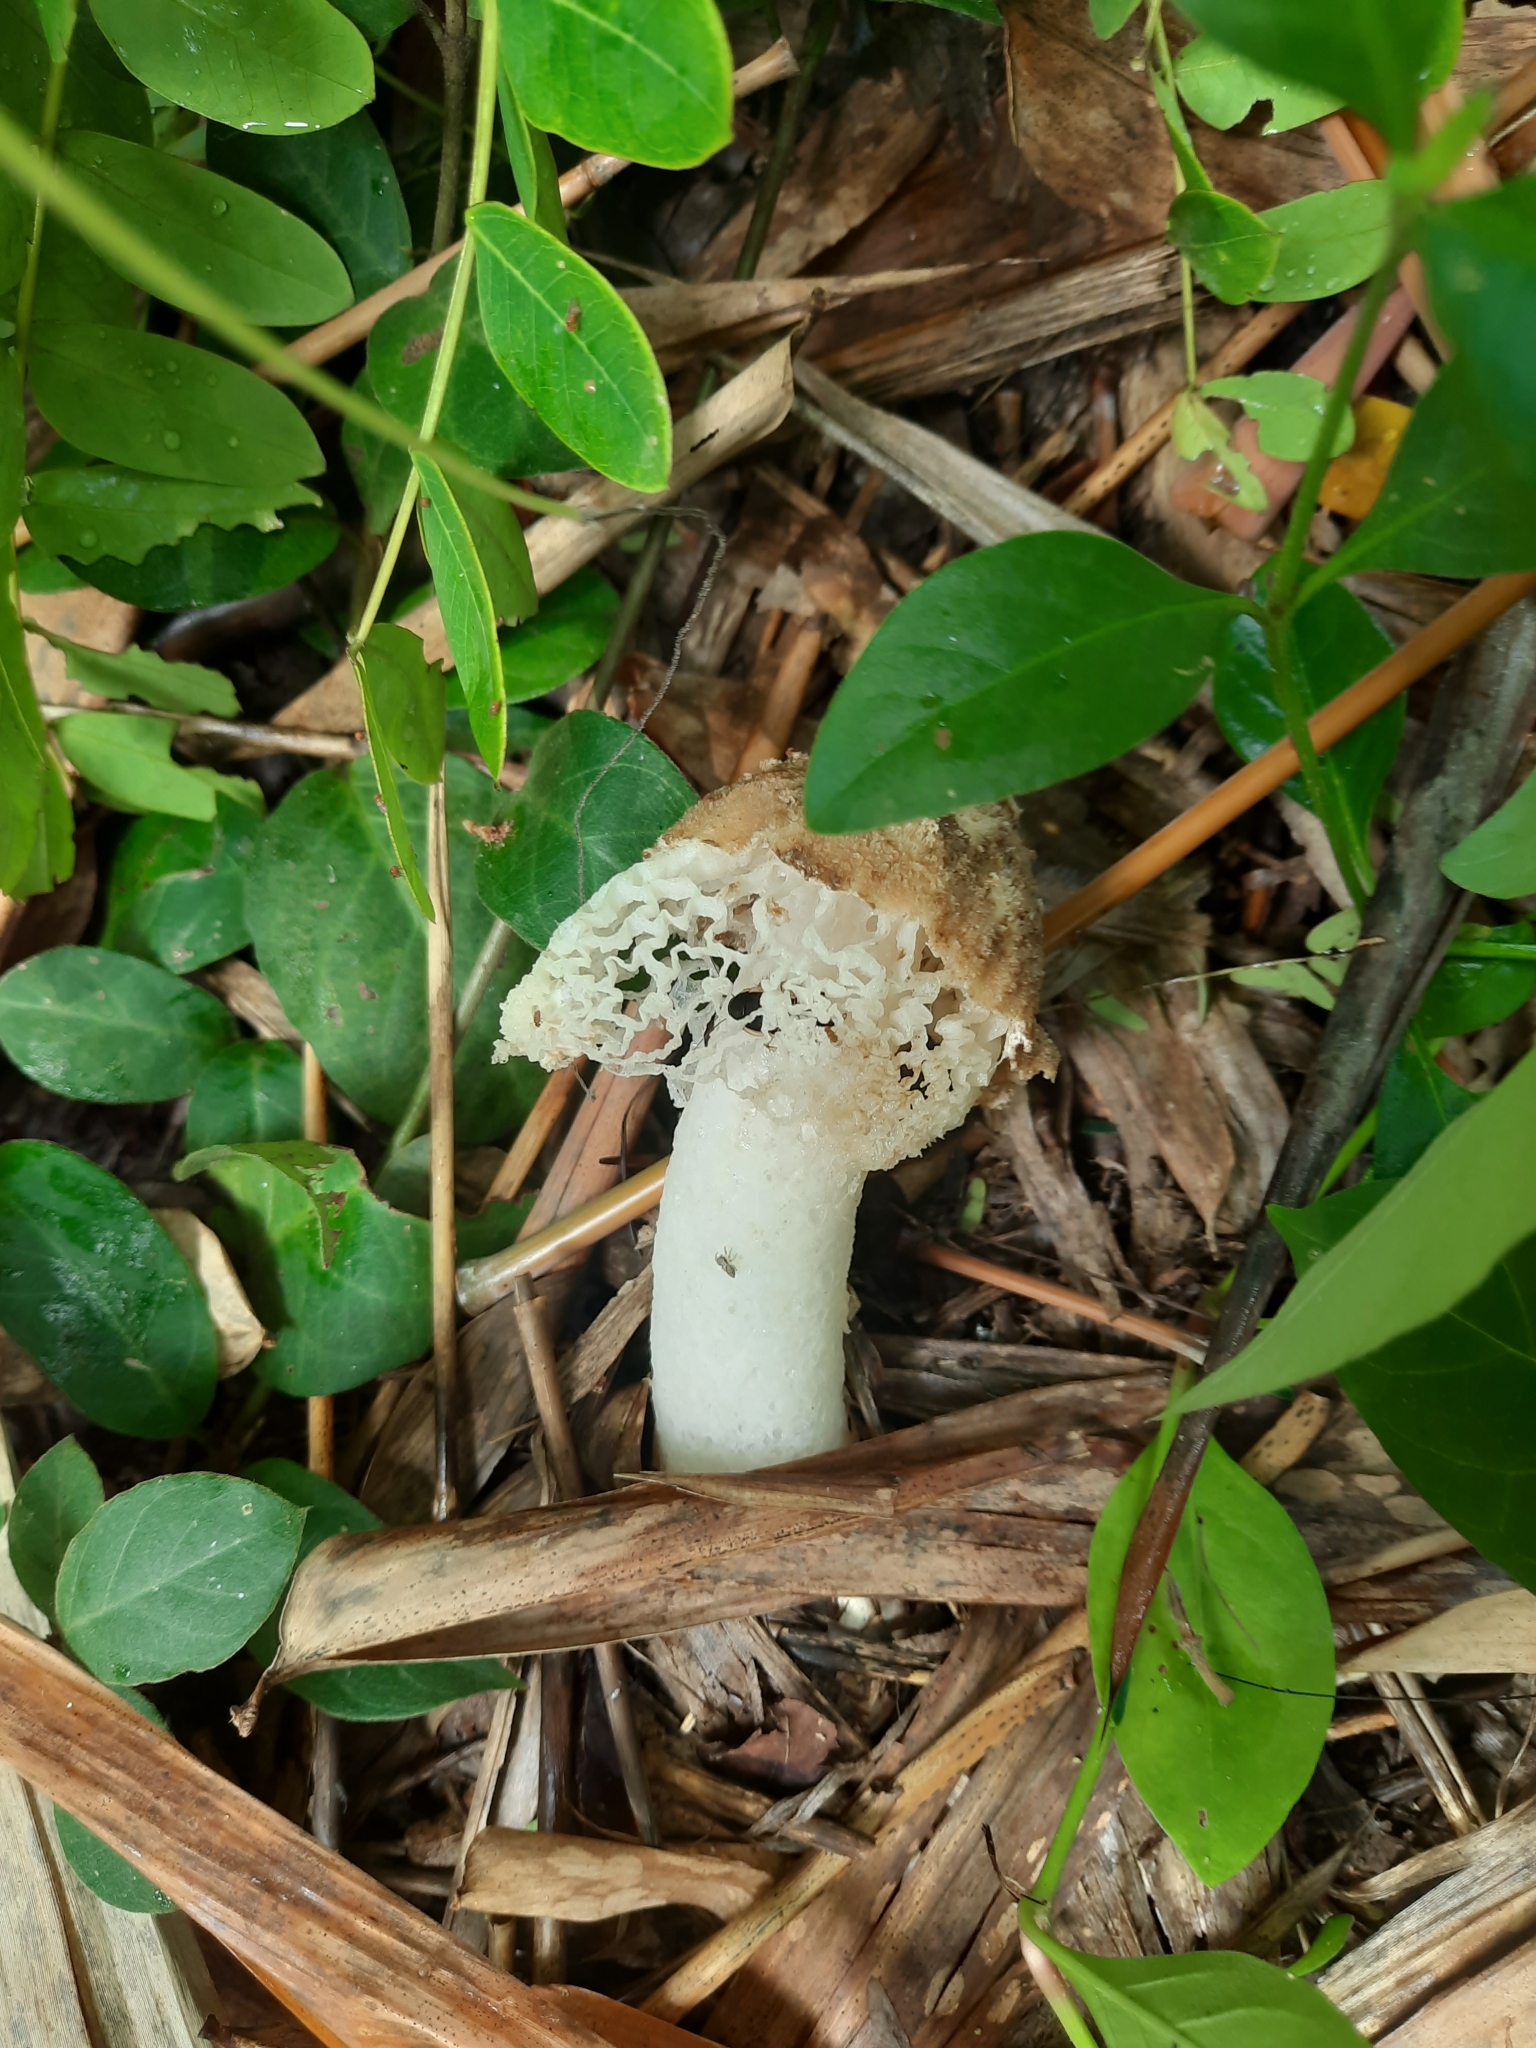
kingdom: Fungi
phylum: Basidiomycota
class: Agaricomycetes
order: Phallales
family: Phallaceae
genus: Phallus
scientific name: Phallus merulinus
